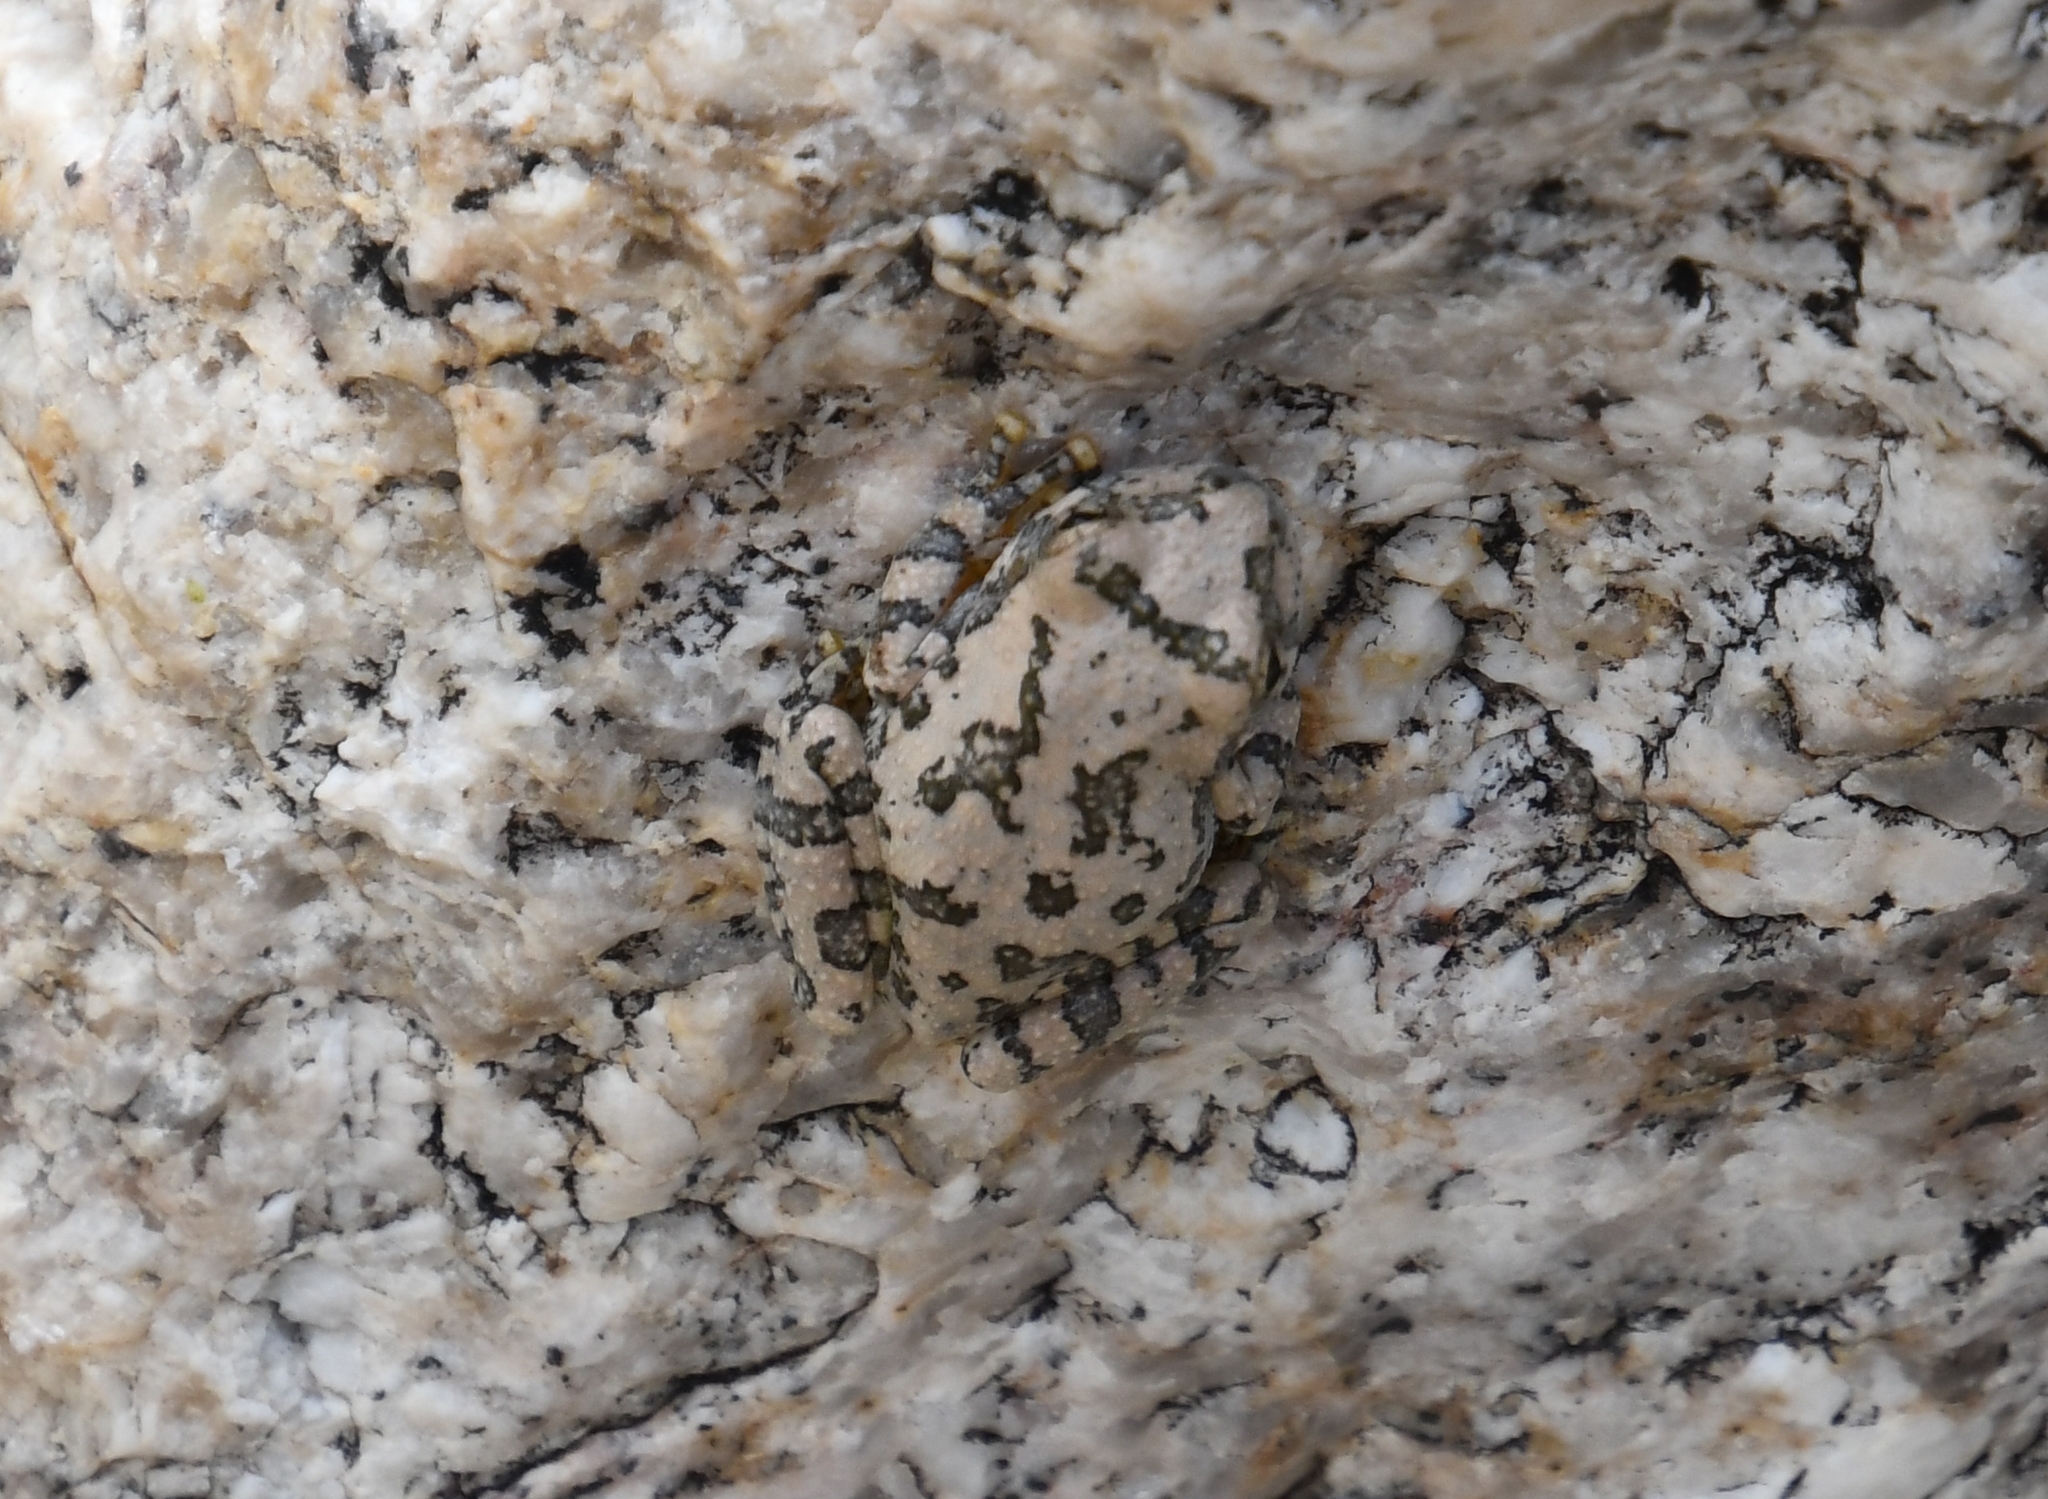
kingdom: Animalia
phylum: Chordata
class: Amphibia
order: Anura
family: Hylidae
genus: Dryophytes
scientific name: Dryophytes arenicolor
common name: Canyon treefrog
